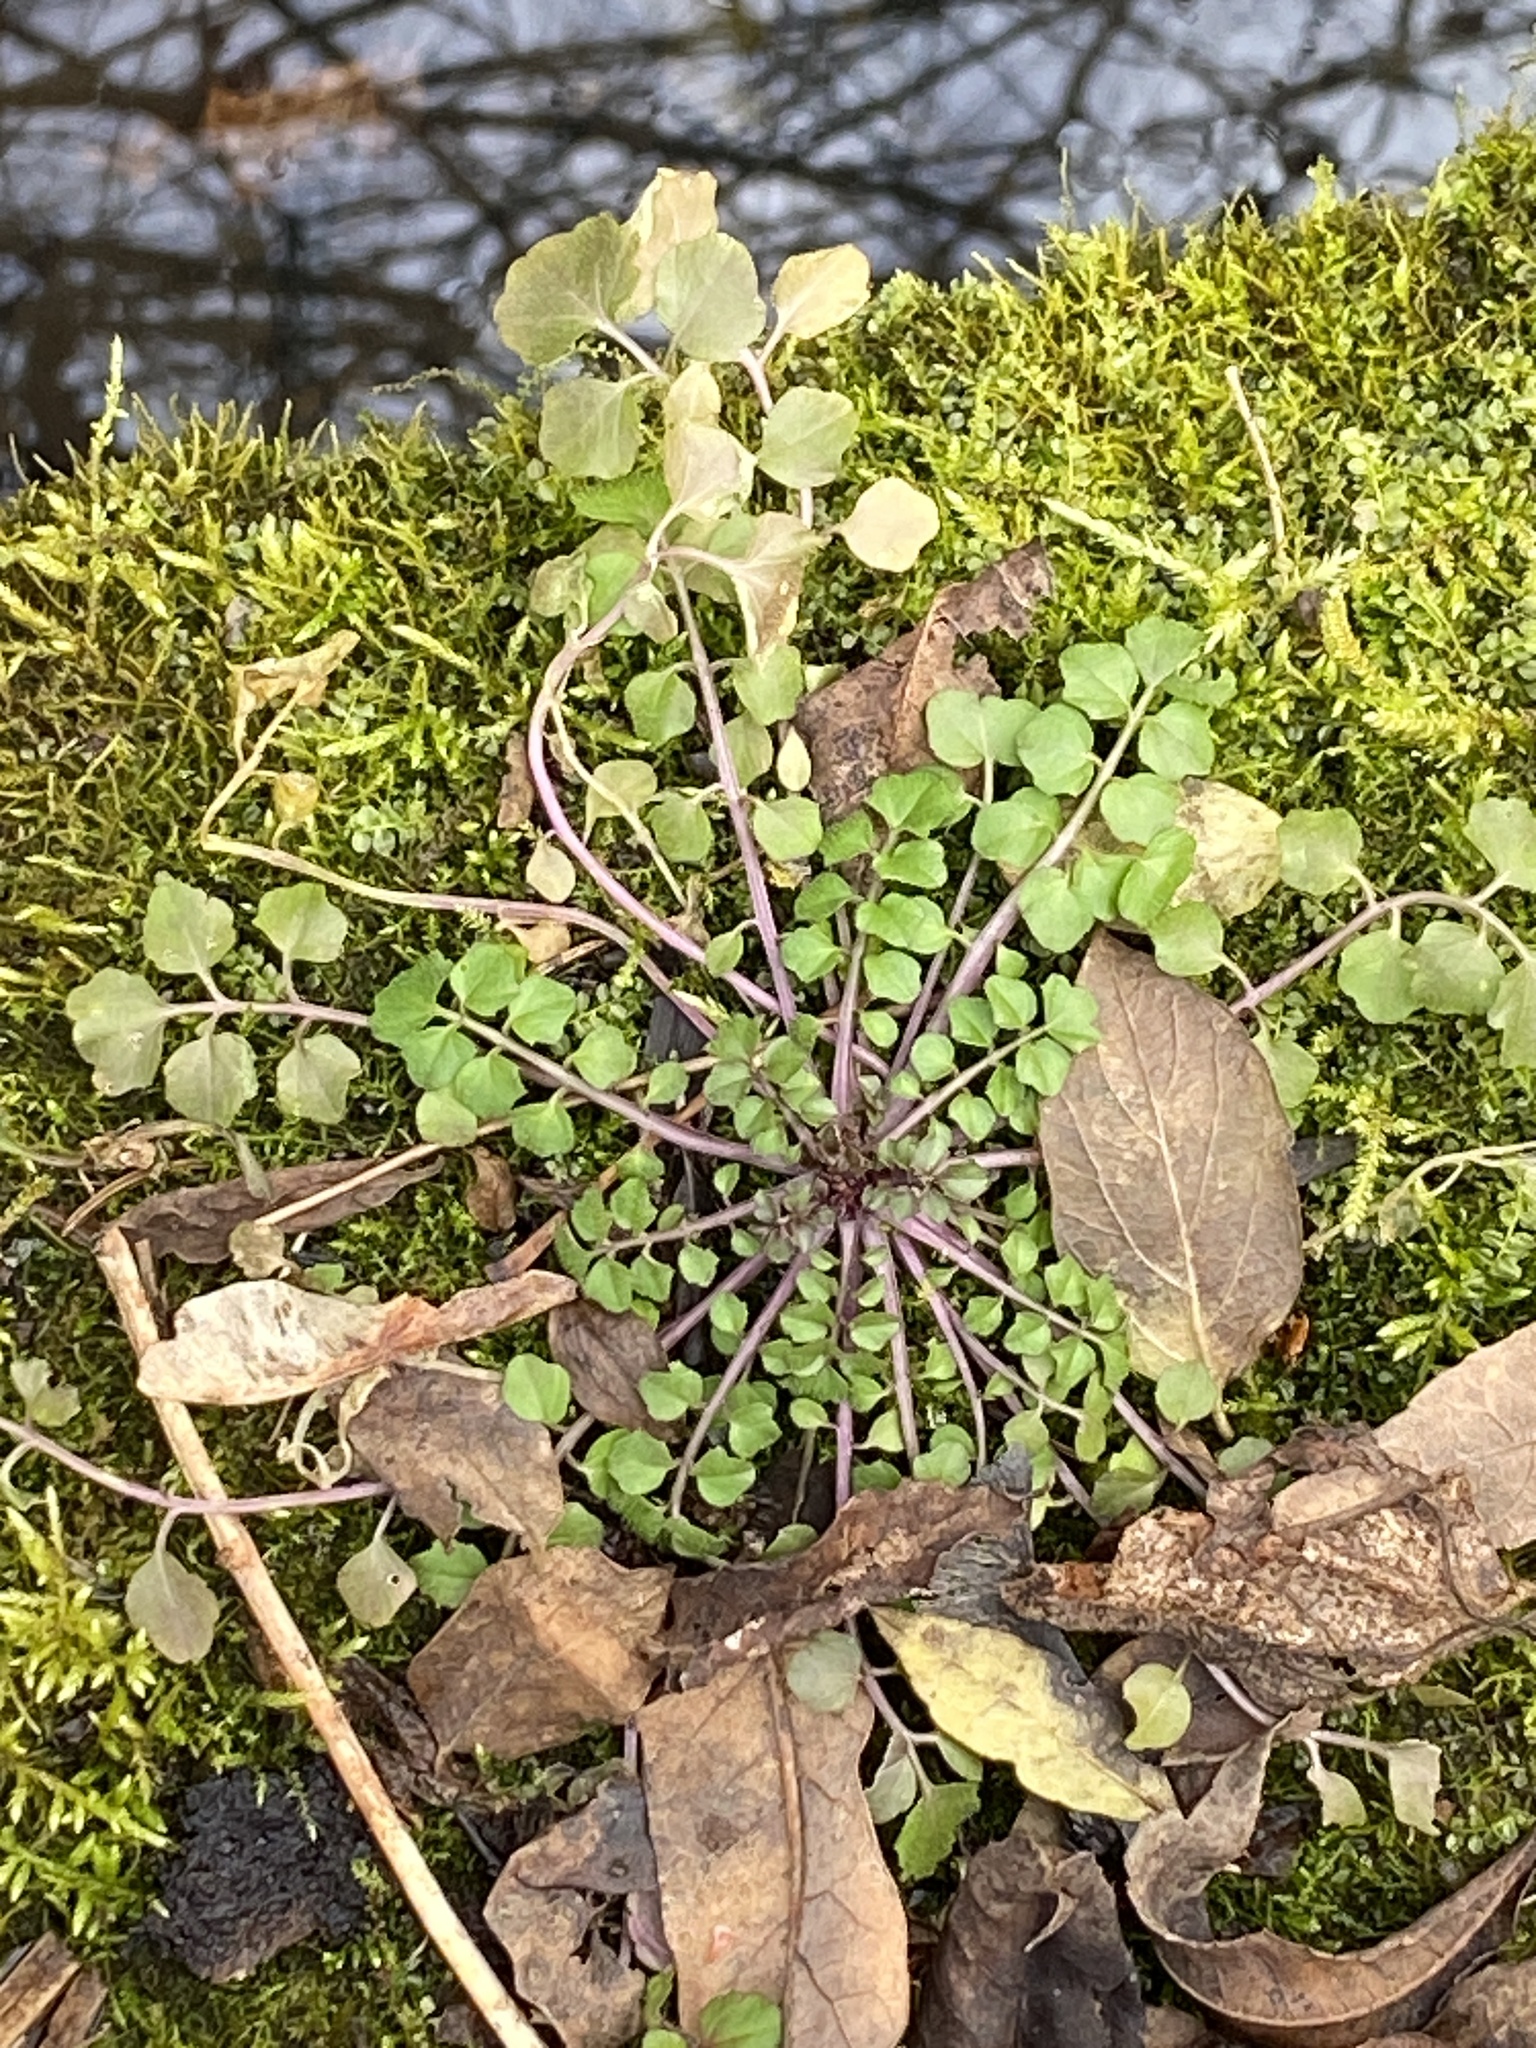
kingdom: Plantae
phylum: Tracheophyta
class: Magnoliopsida
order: Brassicales
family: Brassicaceae
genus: Cardamine
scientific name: Cardamine hirsuta
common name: Hairy bittercress
